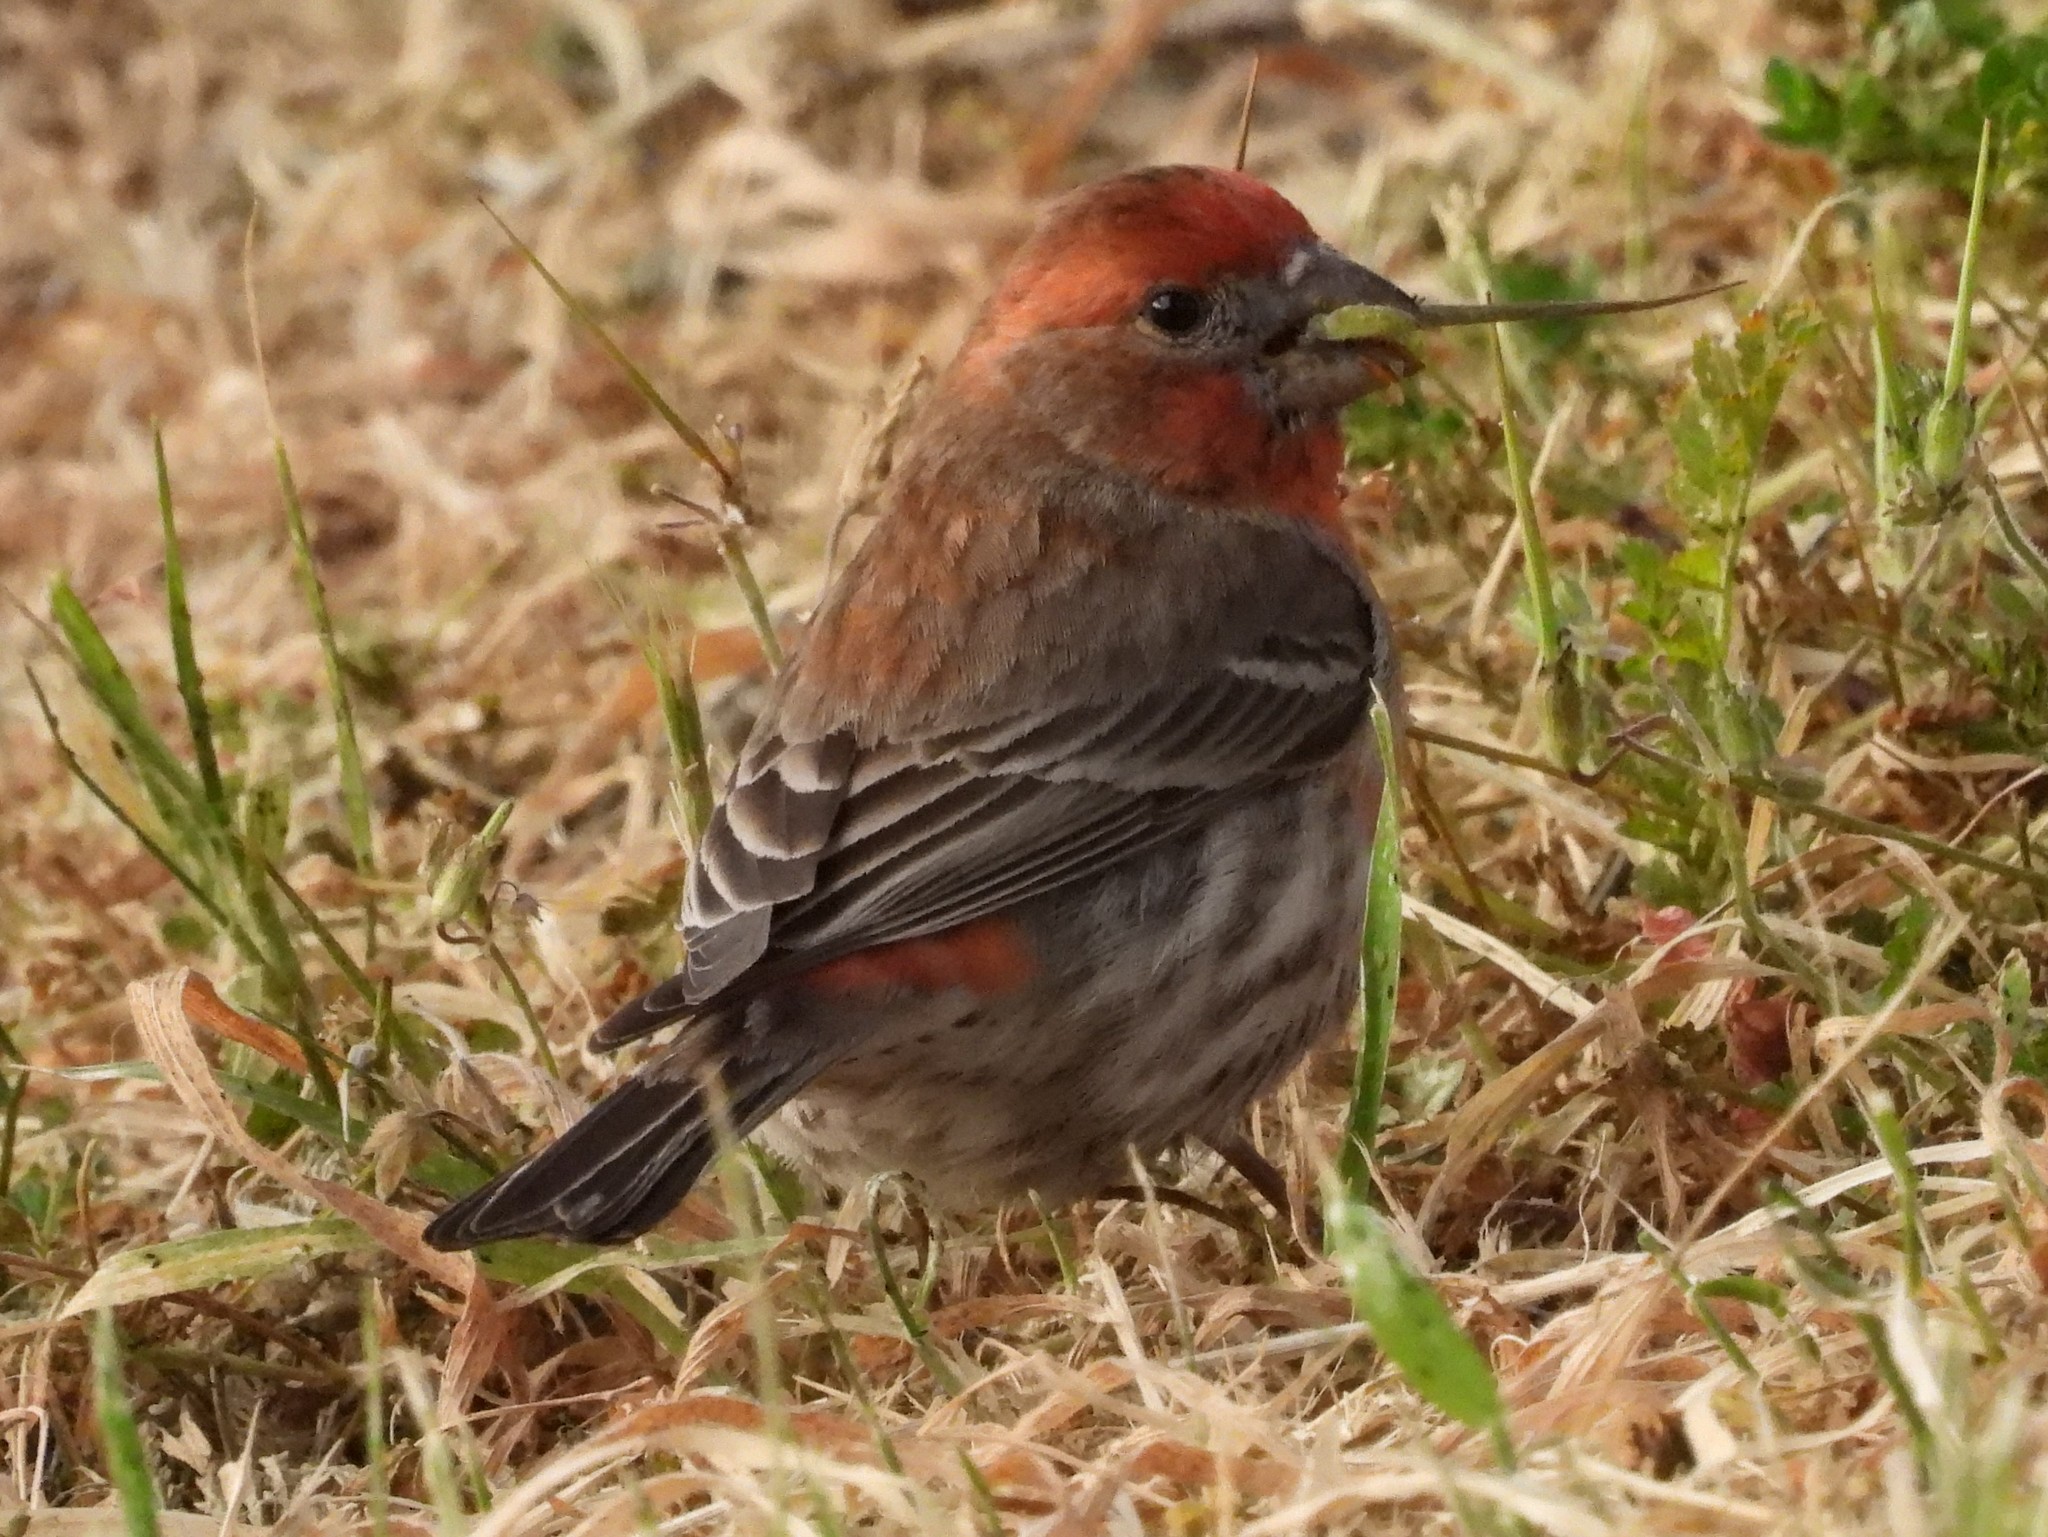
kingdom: Animalia
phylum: Chordata
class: Aves
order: Passeriformes
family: Fringillidae
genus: Haemorhous
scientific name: Haemorhous mexicanus
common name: House finch
